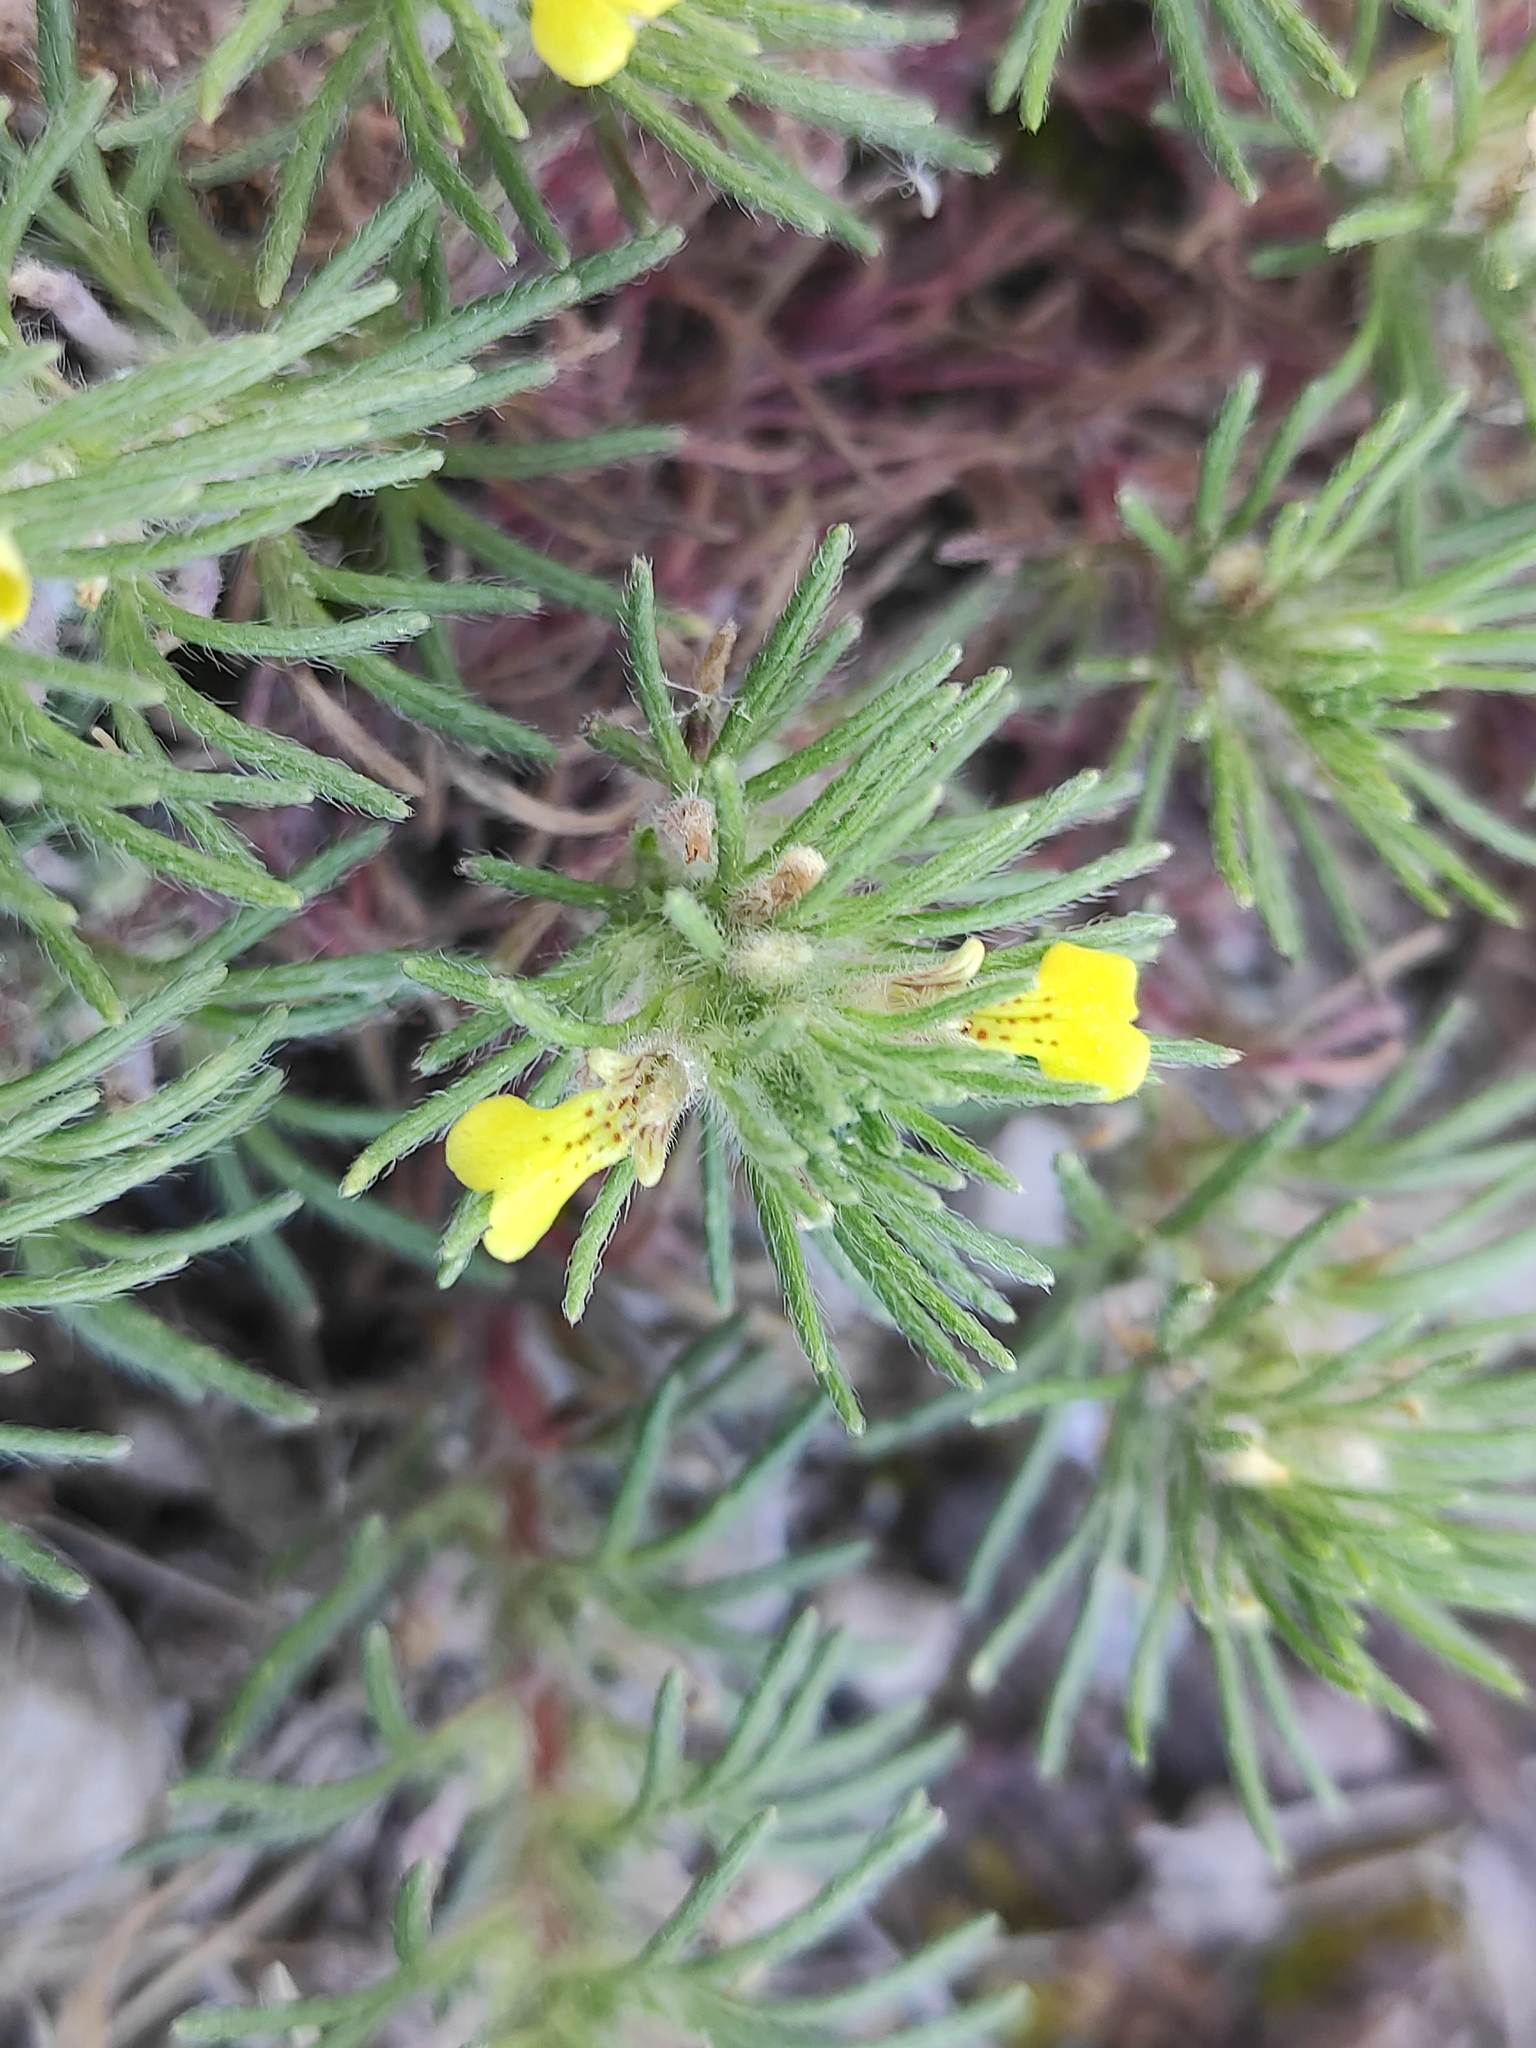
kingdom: Plantae
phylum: Tracheophyta
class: Magnoliopsida
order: Lamiales
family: Lamiaceae
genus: Ajuga
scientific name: Ajuga chamaepitys
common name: Ground-pine
